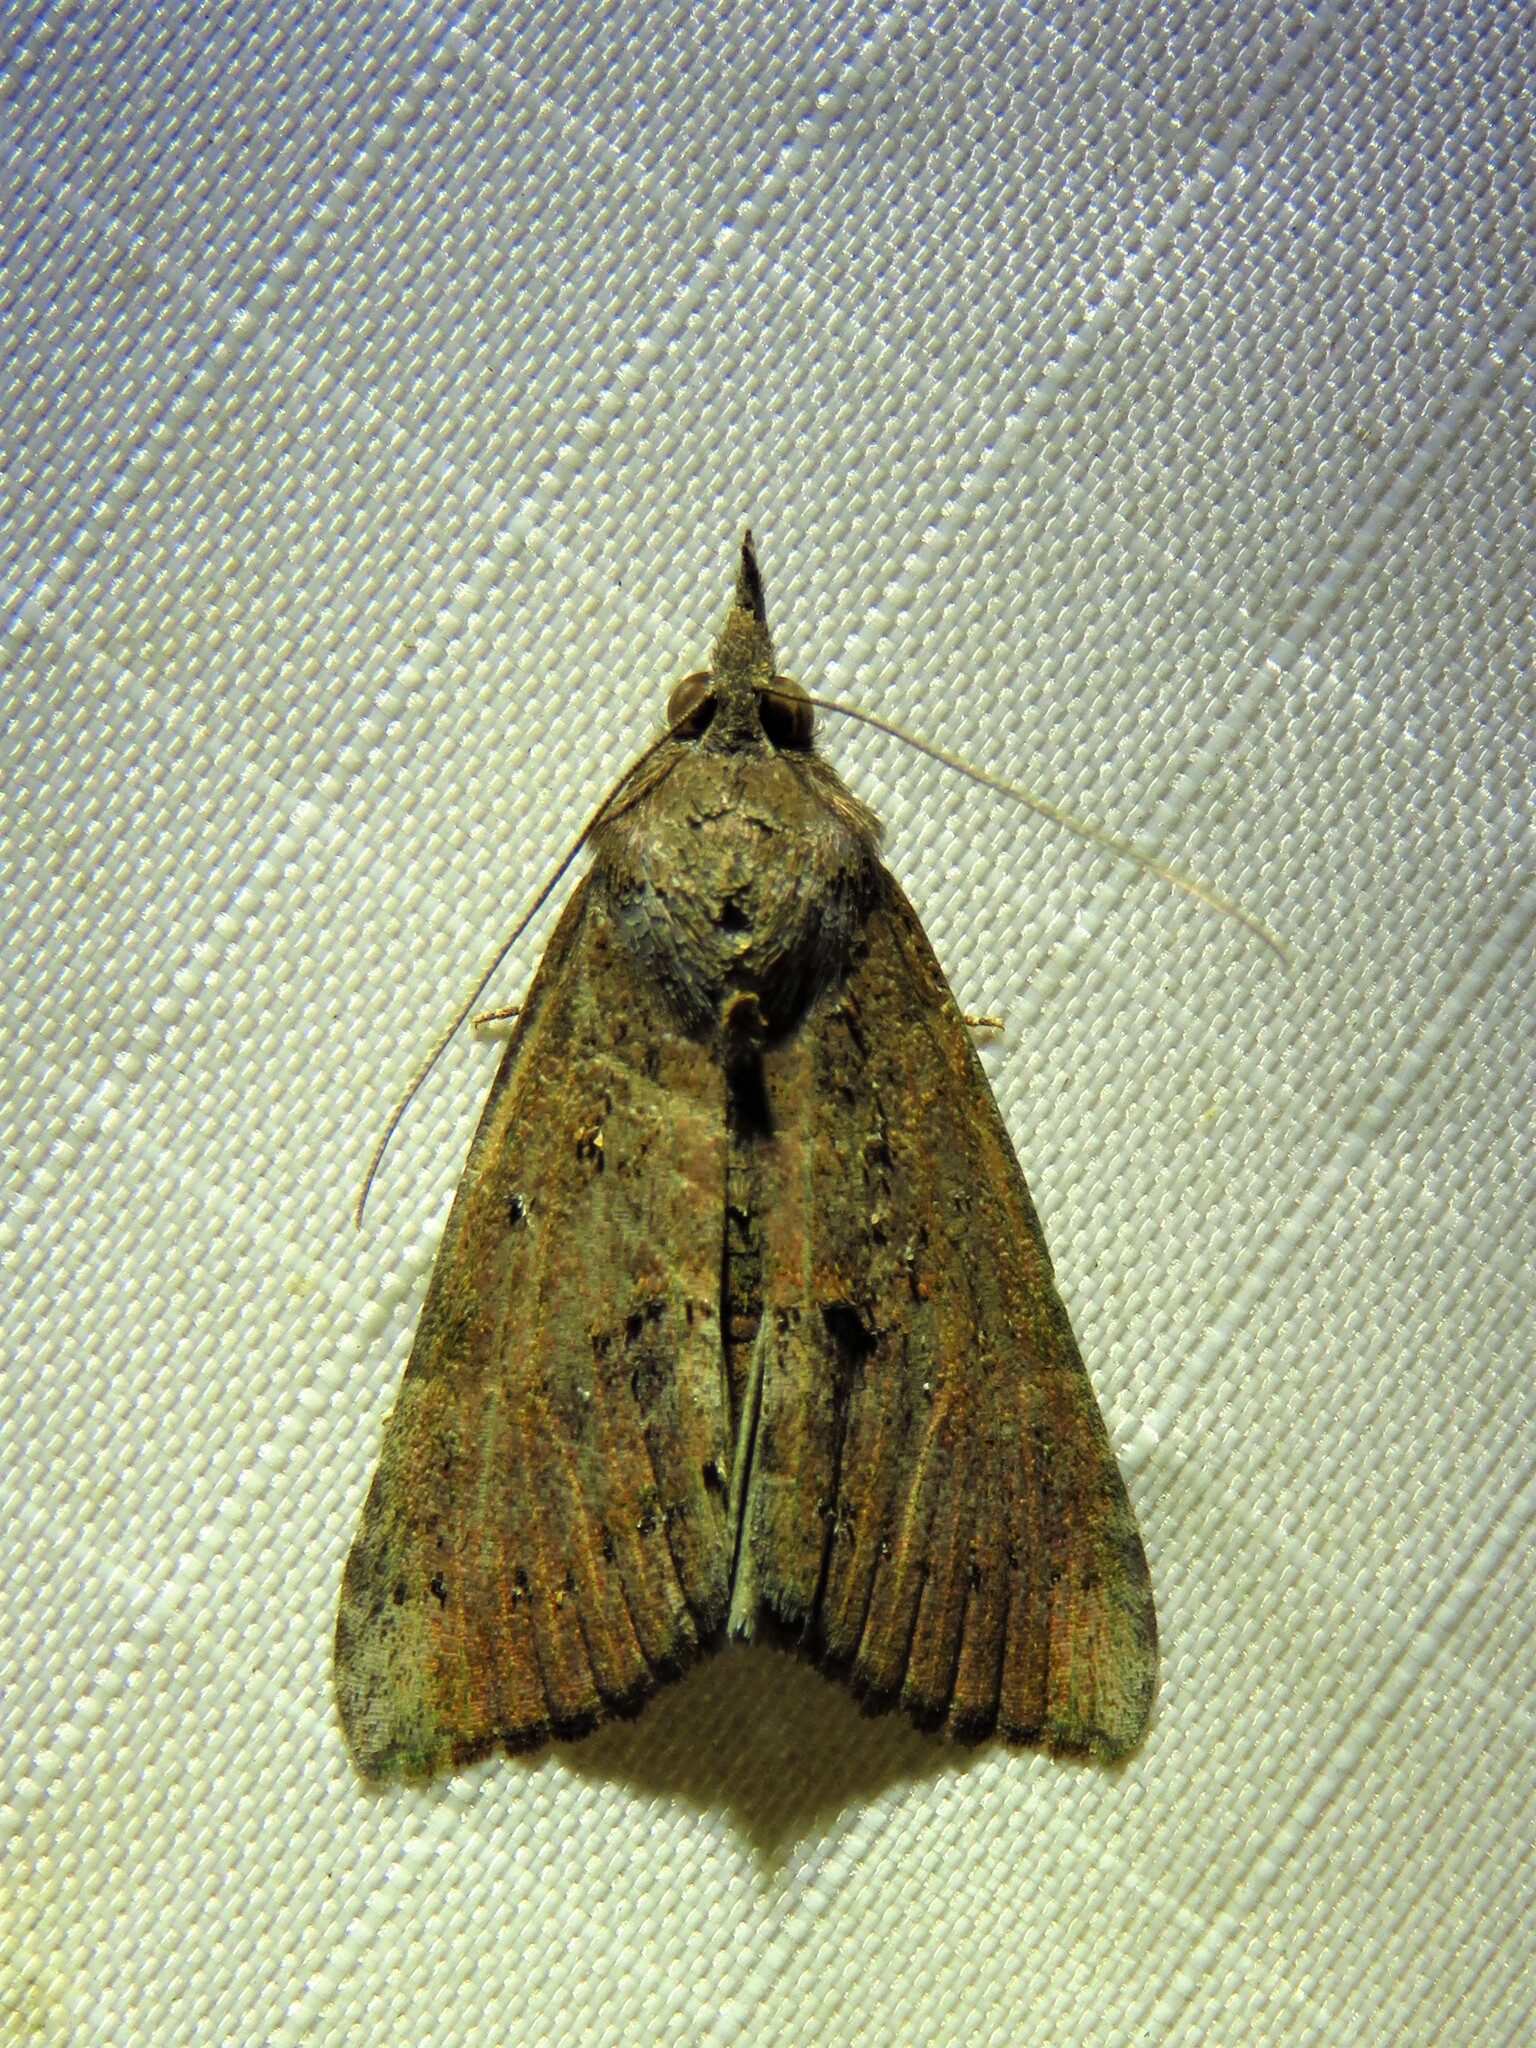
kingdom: Animalia
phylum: Arthropoda
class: Insecta
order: Lepidoptera
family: Erebidae
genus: Hypena
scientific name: Hypena scabra
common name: Green cloverworm
